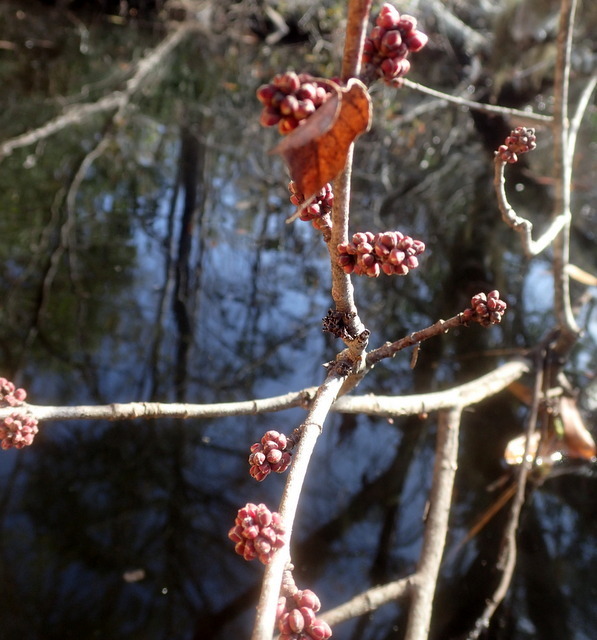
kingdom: Plantae
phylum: Tracheophyta
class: Magnoliopsida
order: Sapindales
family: Sapindaceae
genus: Acer
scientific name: Acer rubrum
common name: Red maple
